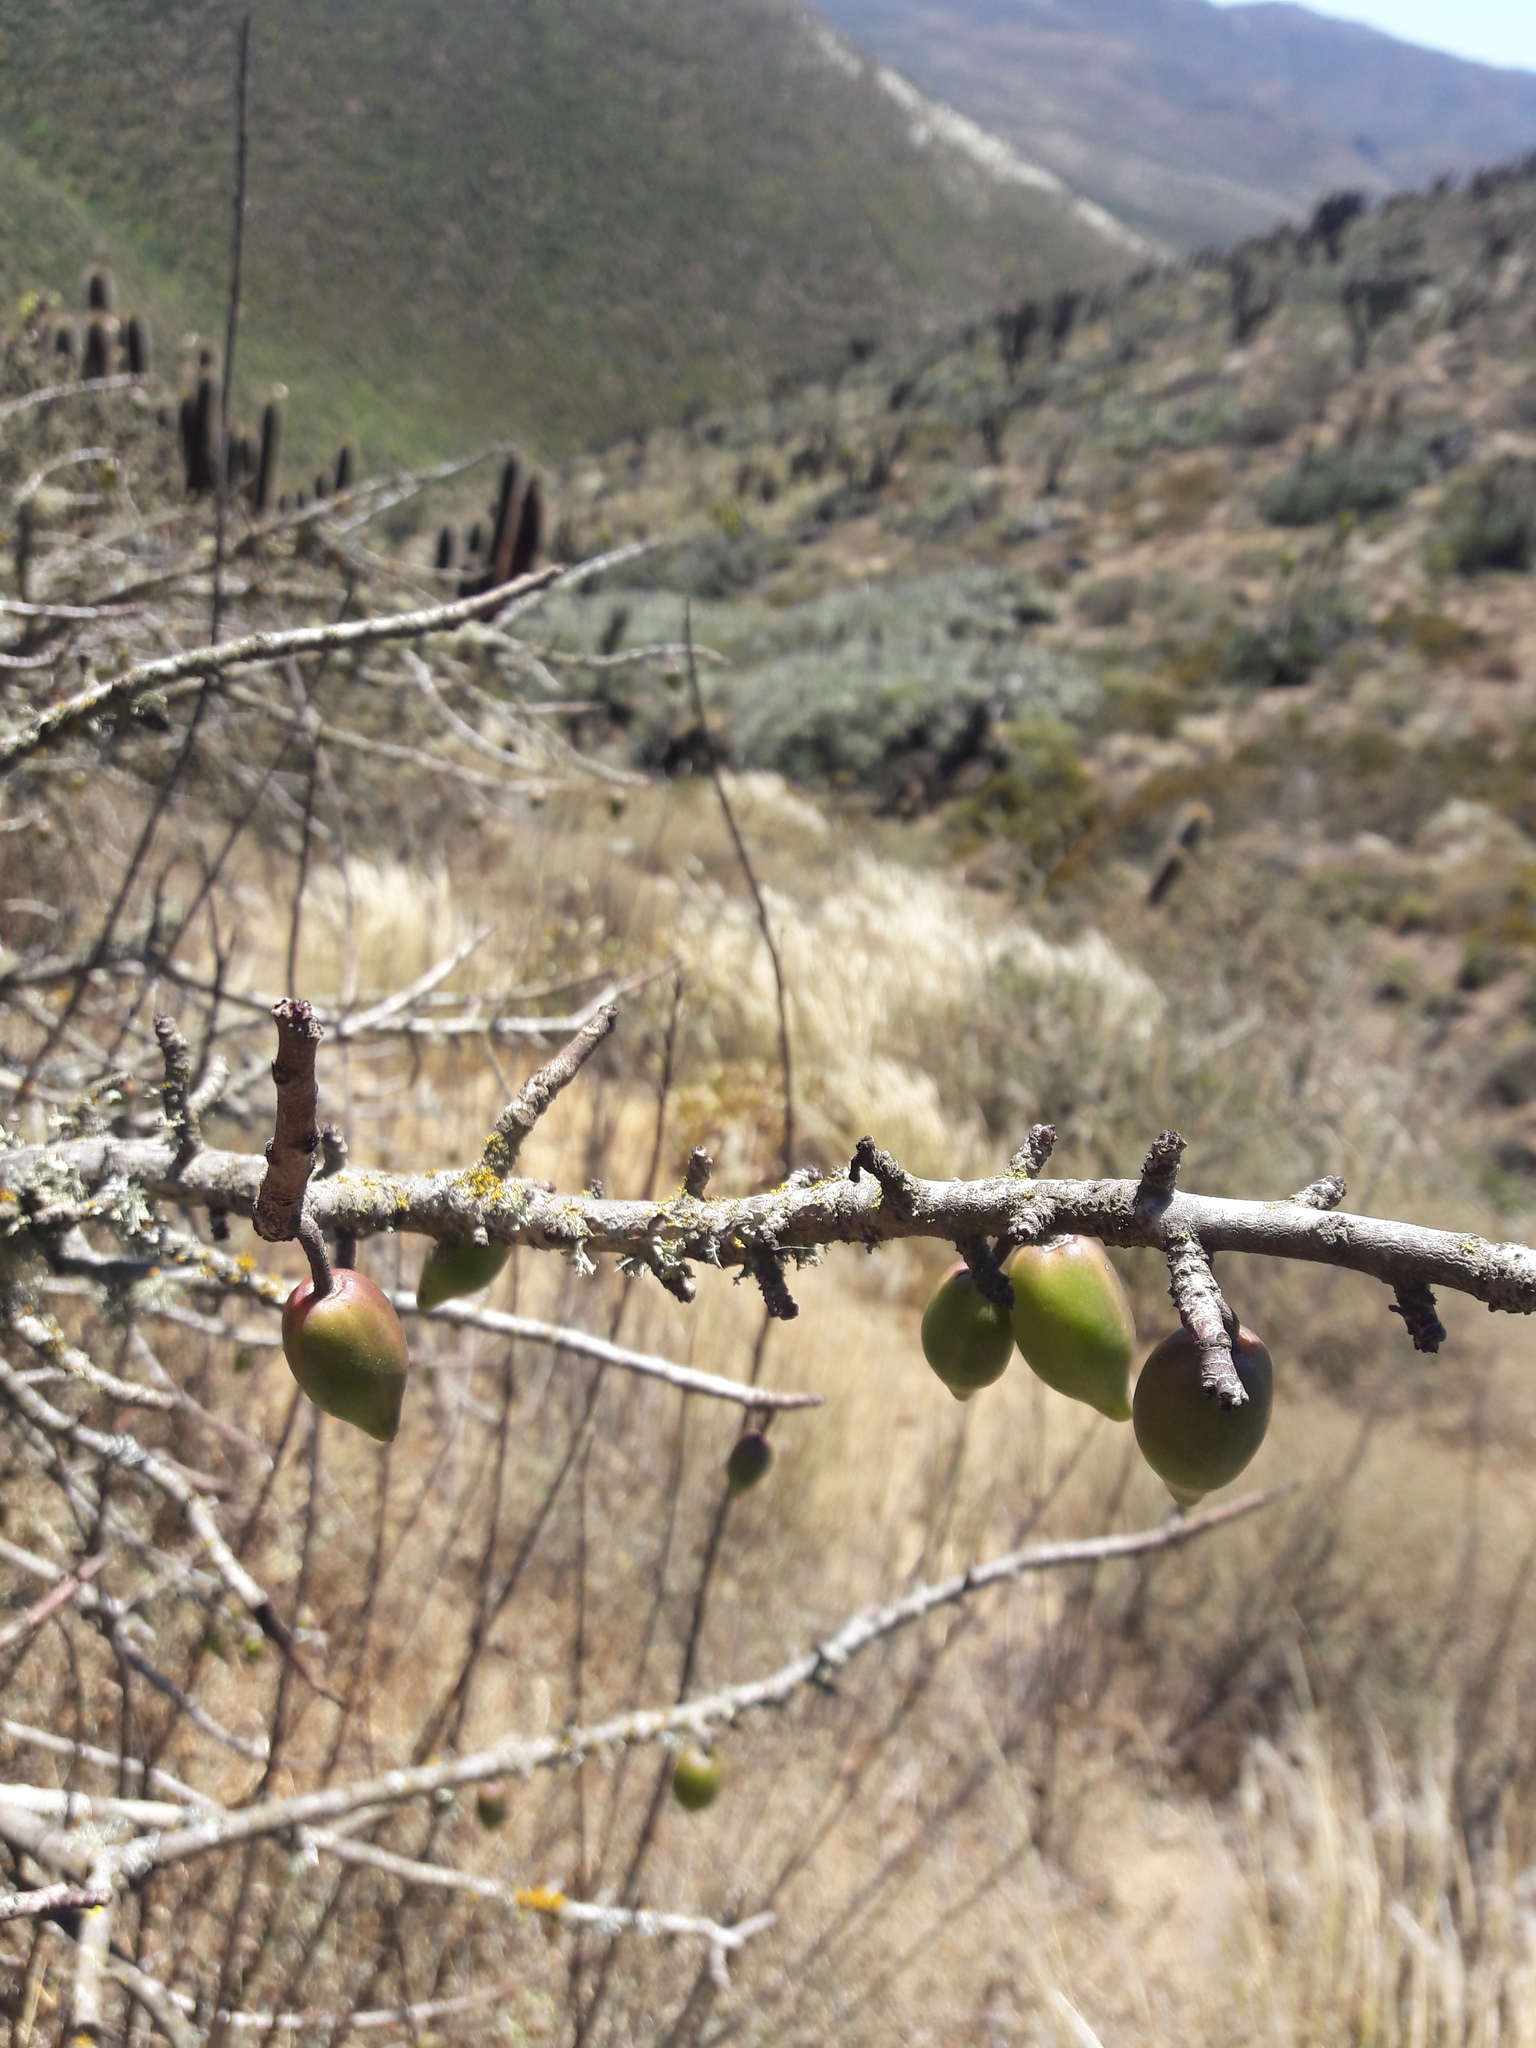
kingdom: Plantae
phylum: Tracheophyta
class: Magnoliopsida
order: Brassicales
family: Caricaceae
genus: Vasconcellea
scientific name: Vasconcellea chilensis
